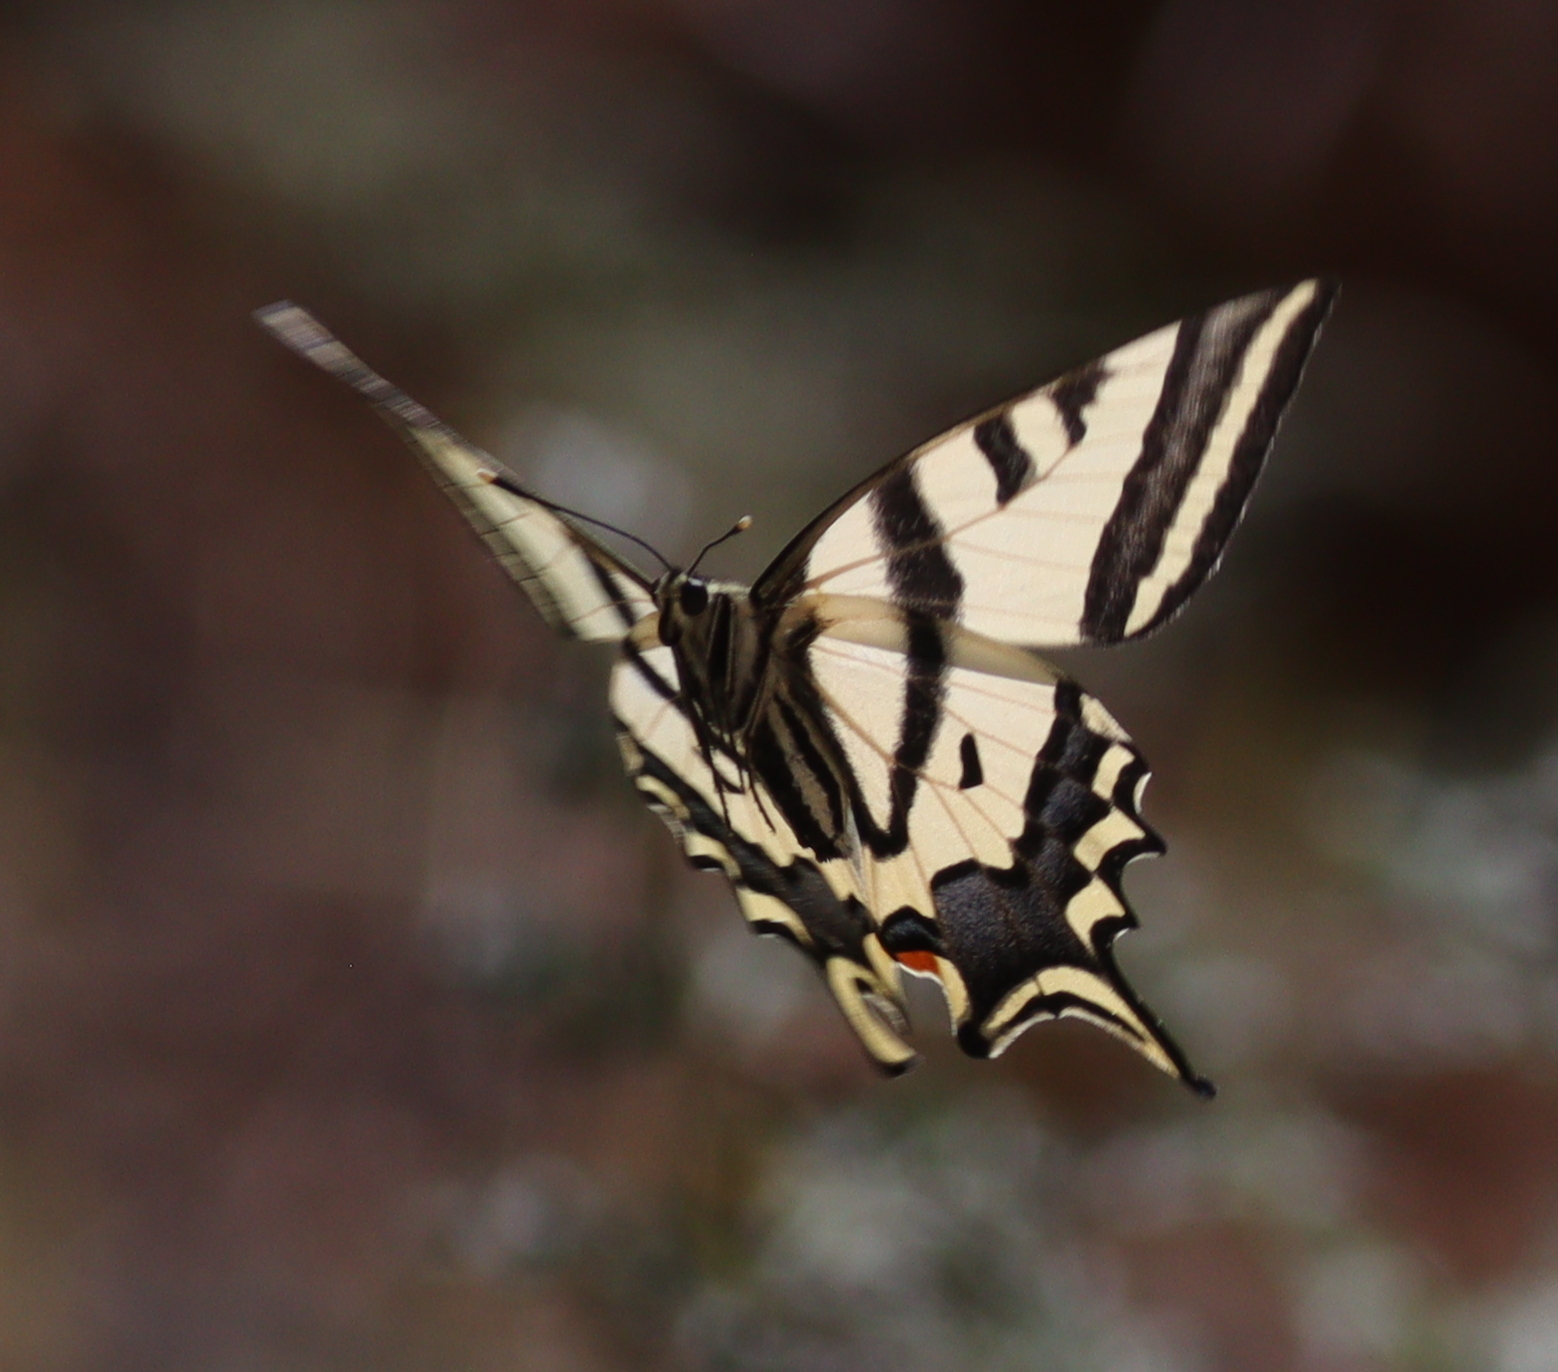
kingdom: Animalia
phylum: Arthropoda
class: Insecta
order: Lepidoptera
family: Papilionidae
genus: Papilio
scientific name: Papilio alexanor
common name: Southern swallowtail
